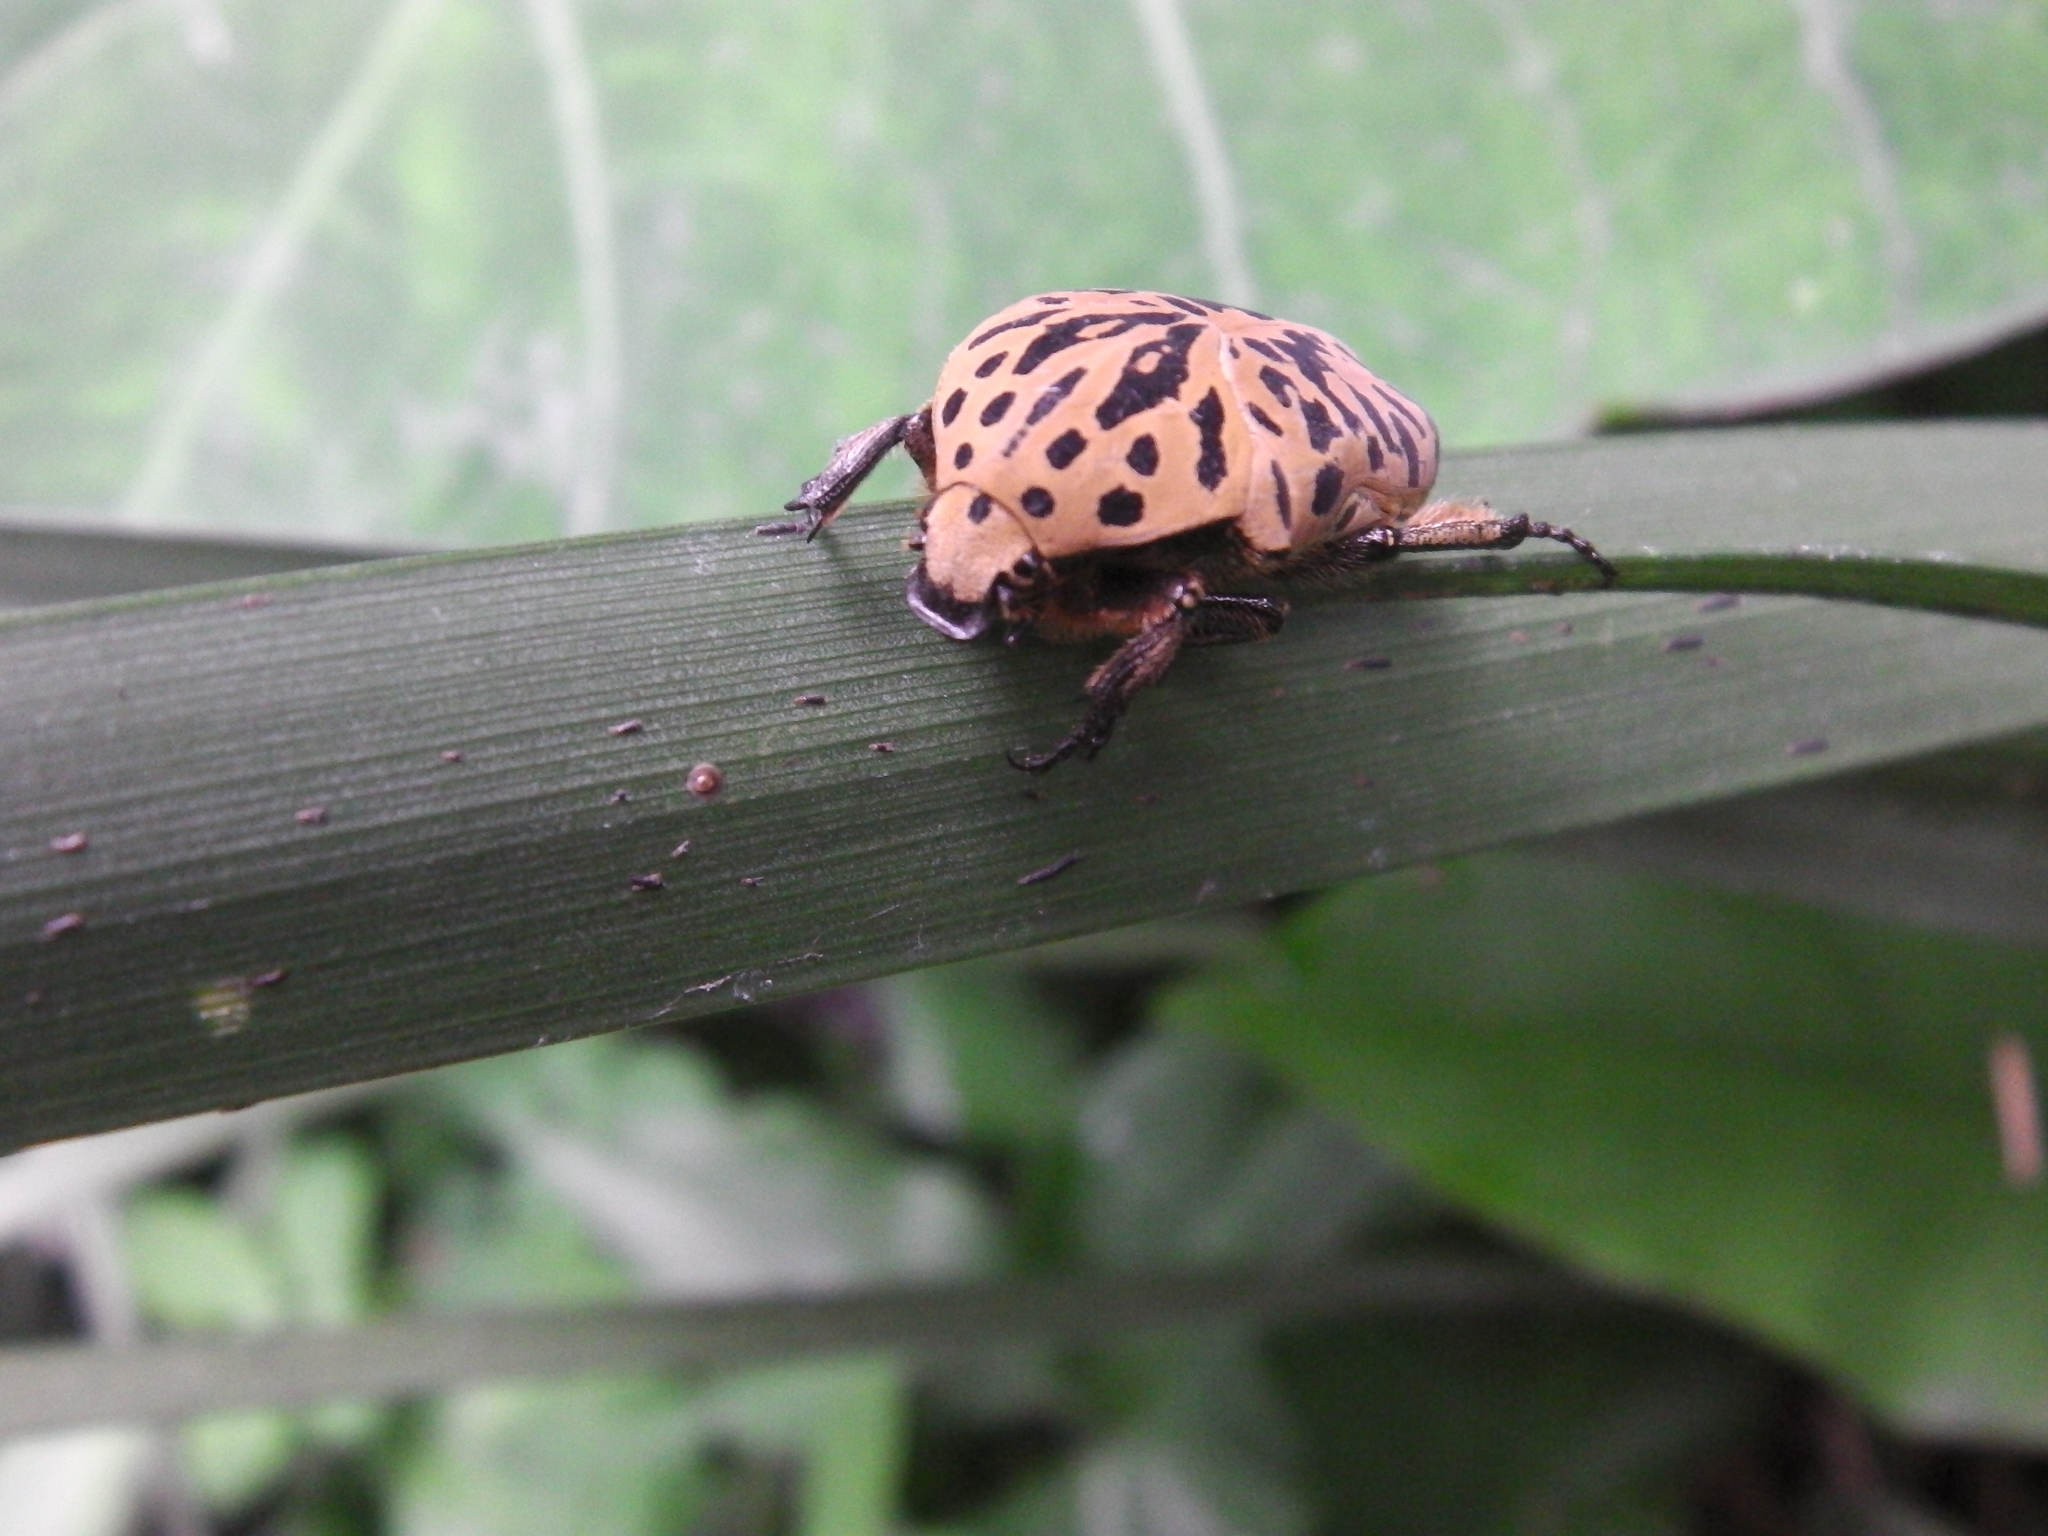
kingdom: Animalia
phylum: Arthropoda
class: Insecta
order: Coleoptera
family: Scarabaeidae
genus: Gymnetis
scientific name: Gymnetis pantherina
